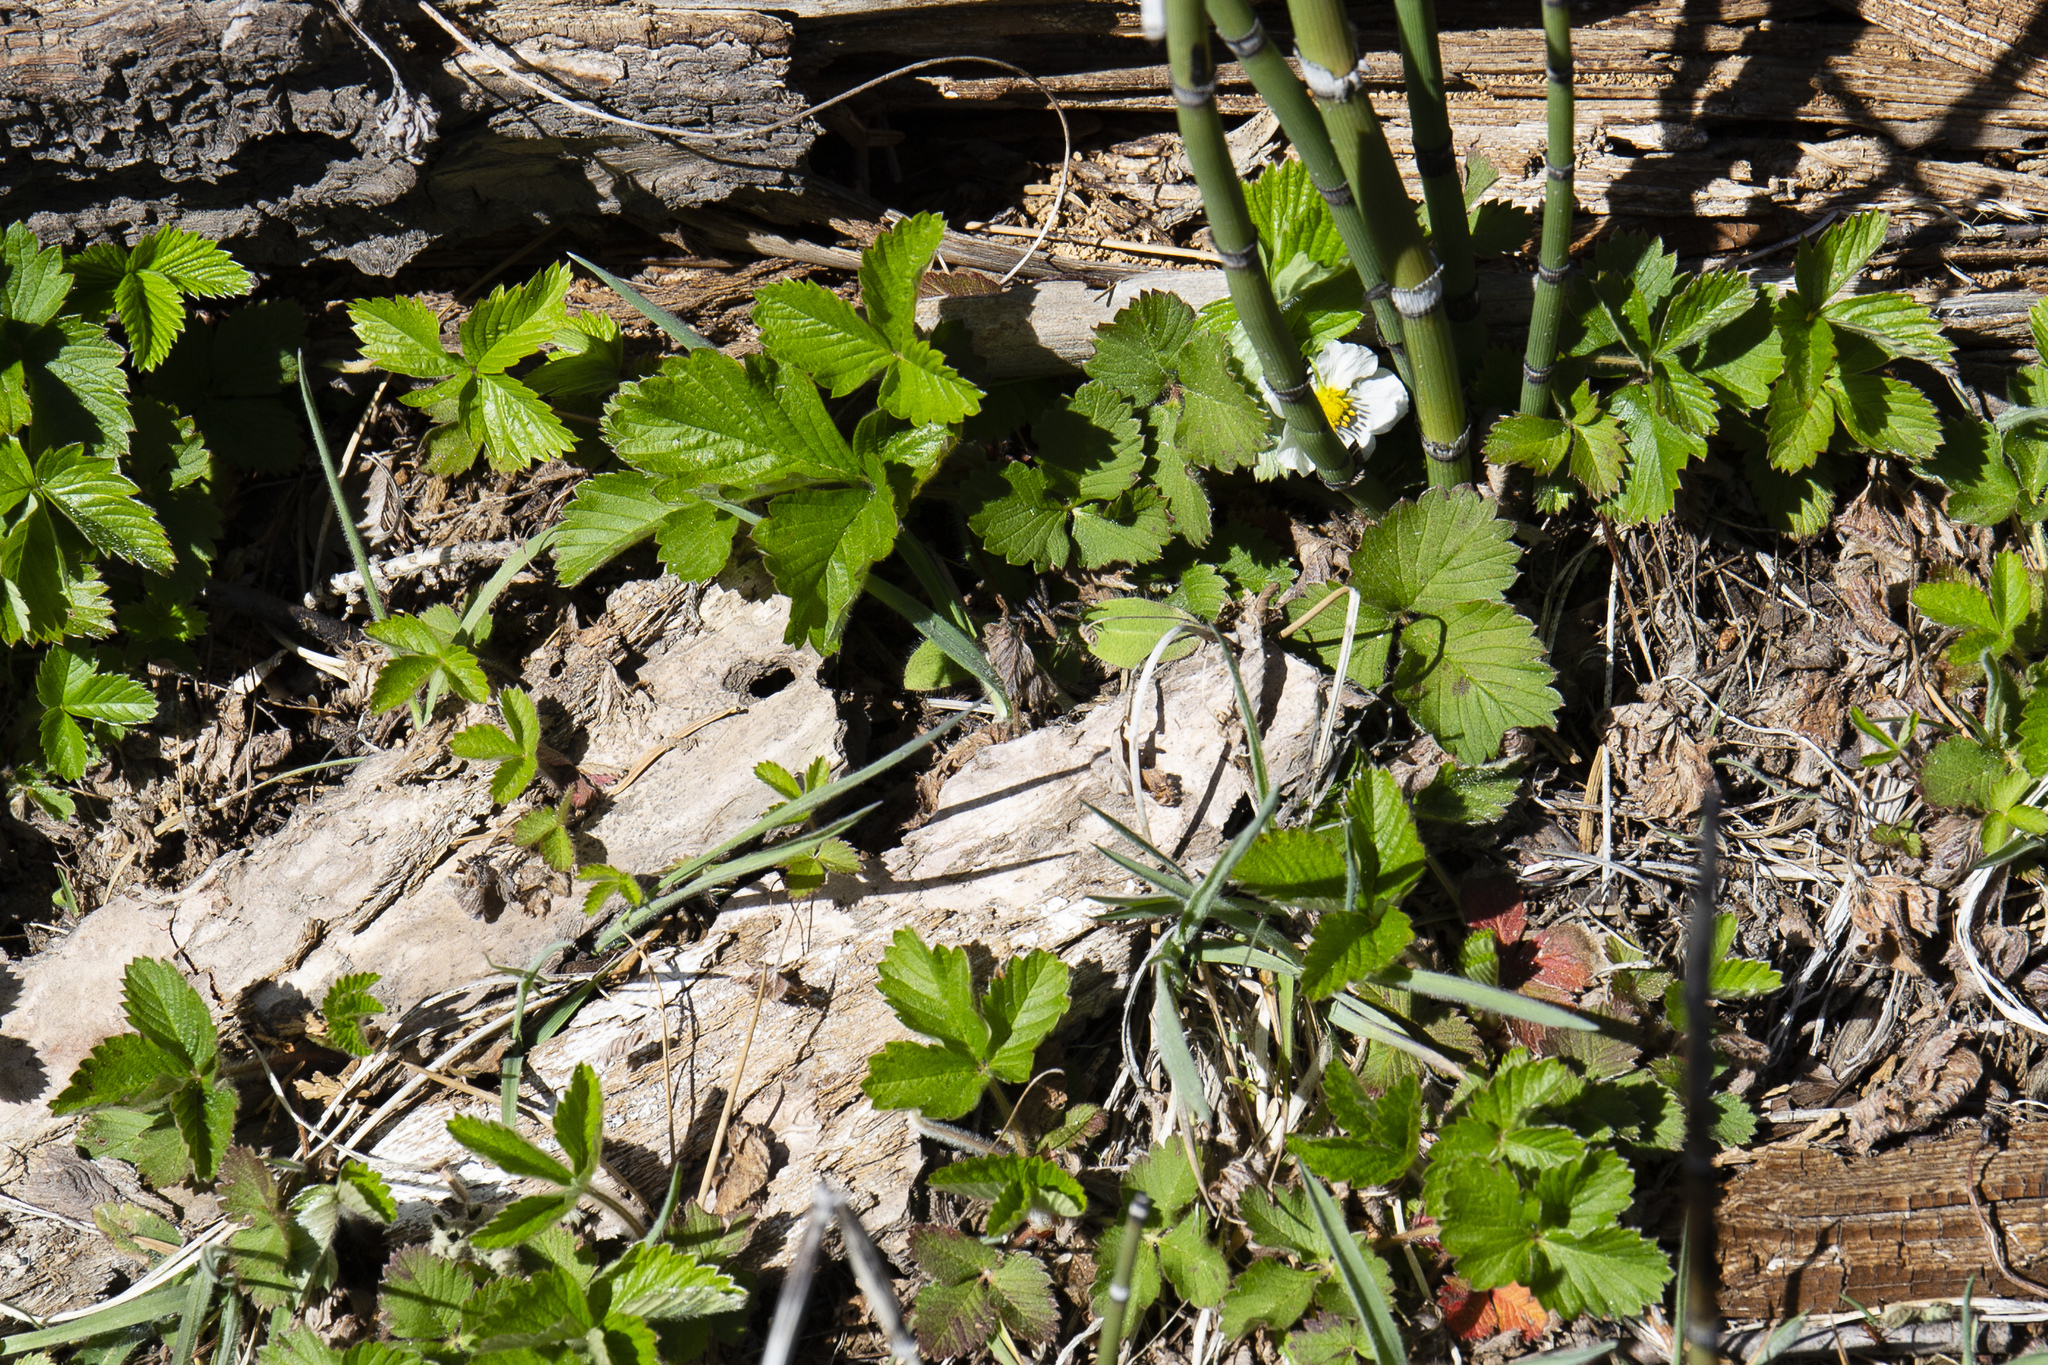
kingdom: Plantae
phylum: Tracheophyta
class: Magnoliopsida
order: Rosales
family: Rosaceae
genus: Fragaria
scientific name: Fragaria vesca
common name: Wild strawberry
